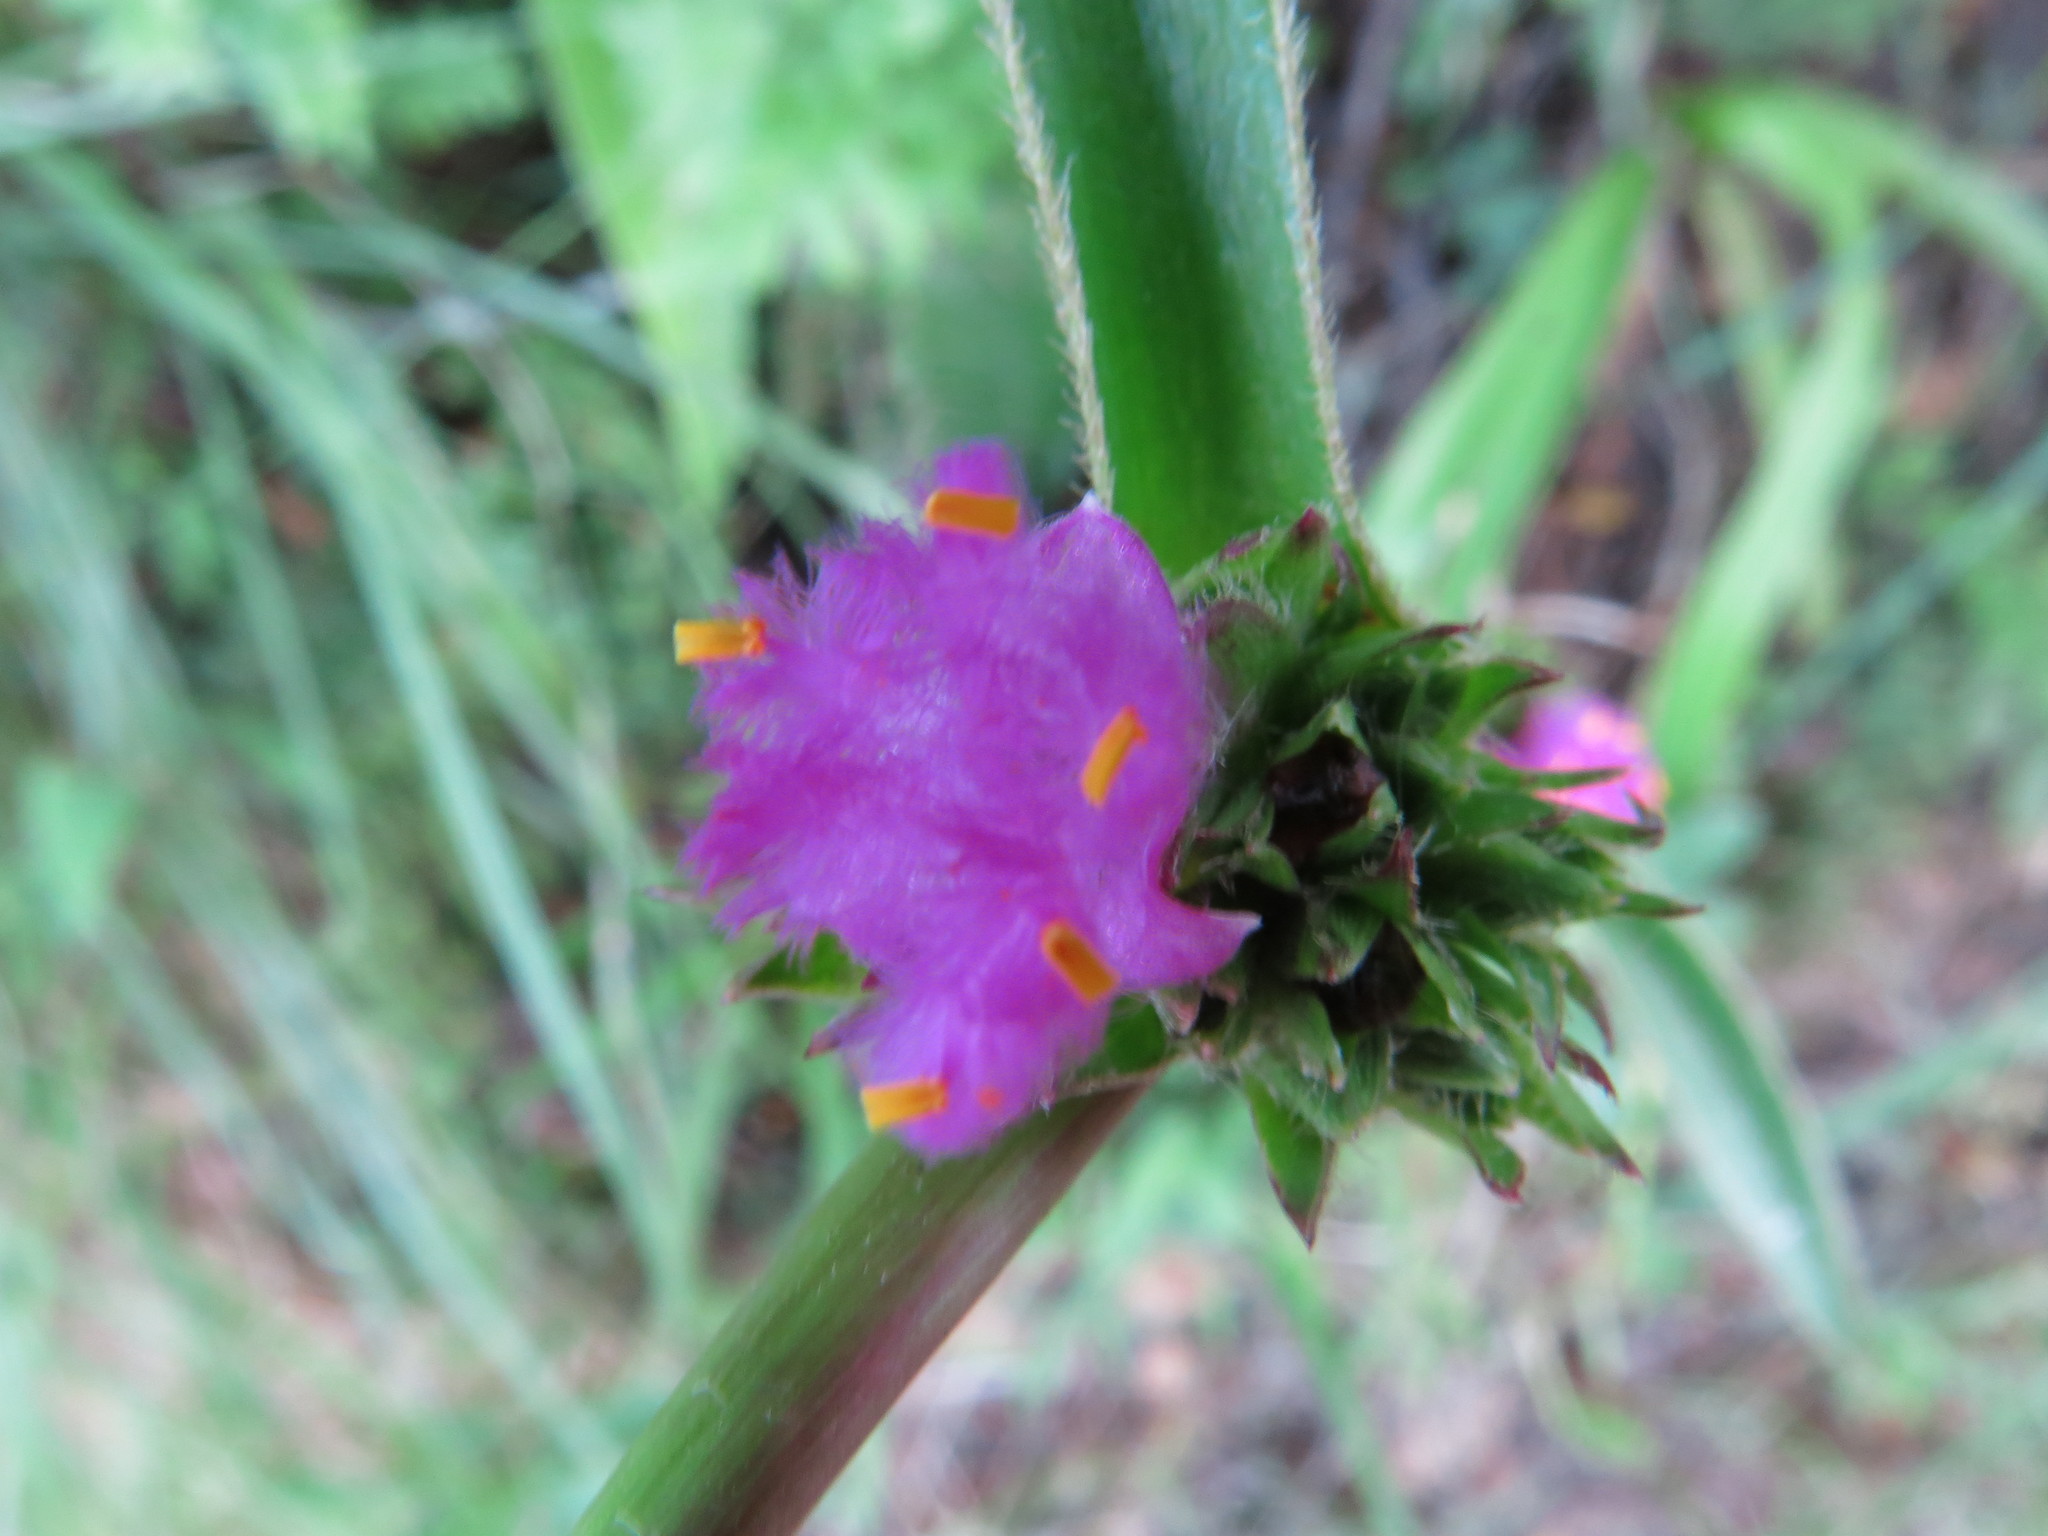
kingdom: Plantae
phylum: Tracheophyta
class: Liliopsida
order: Commelinales
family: Commelinaceae
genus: Cyanotis
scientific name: Cyanotis speciosa
